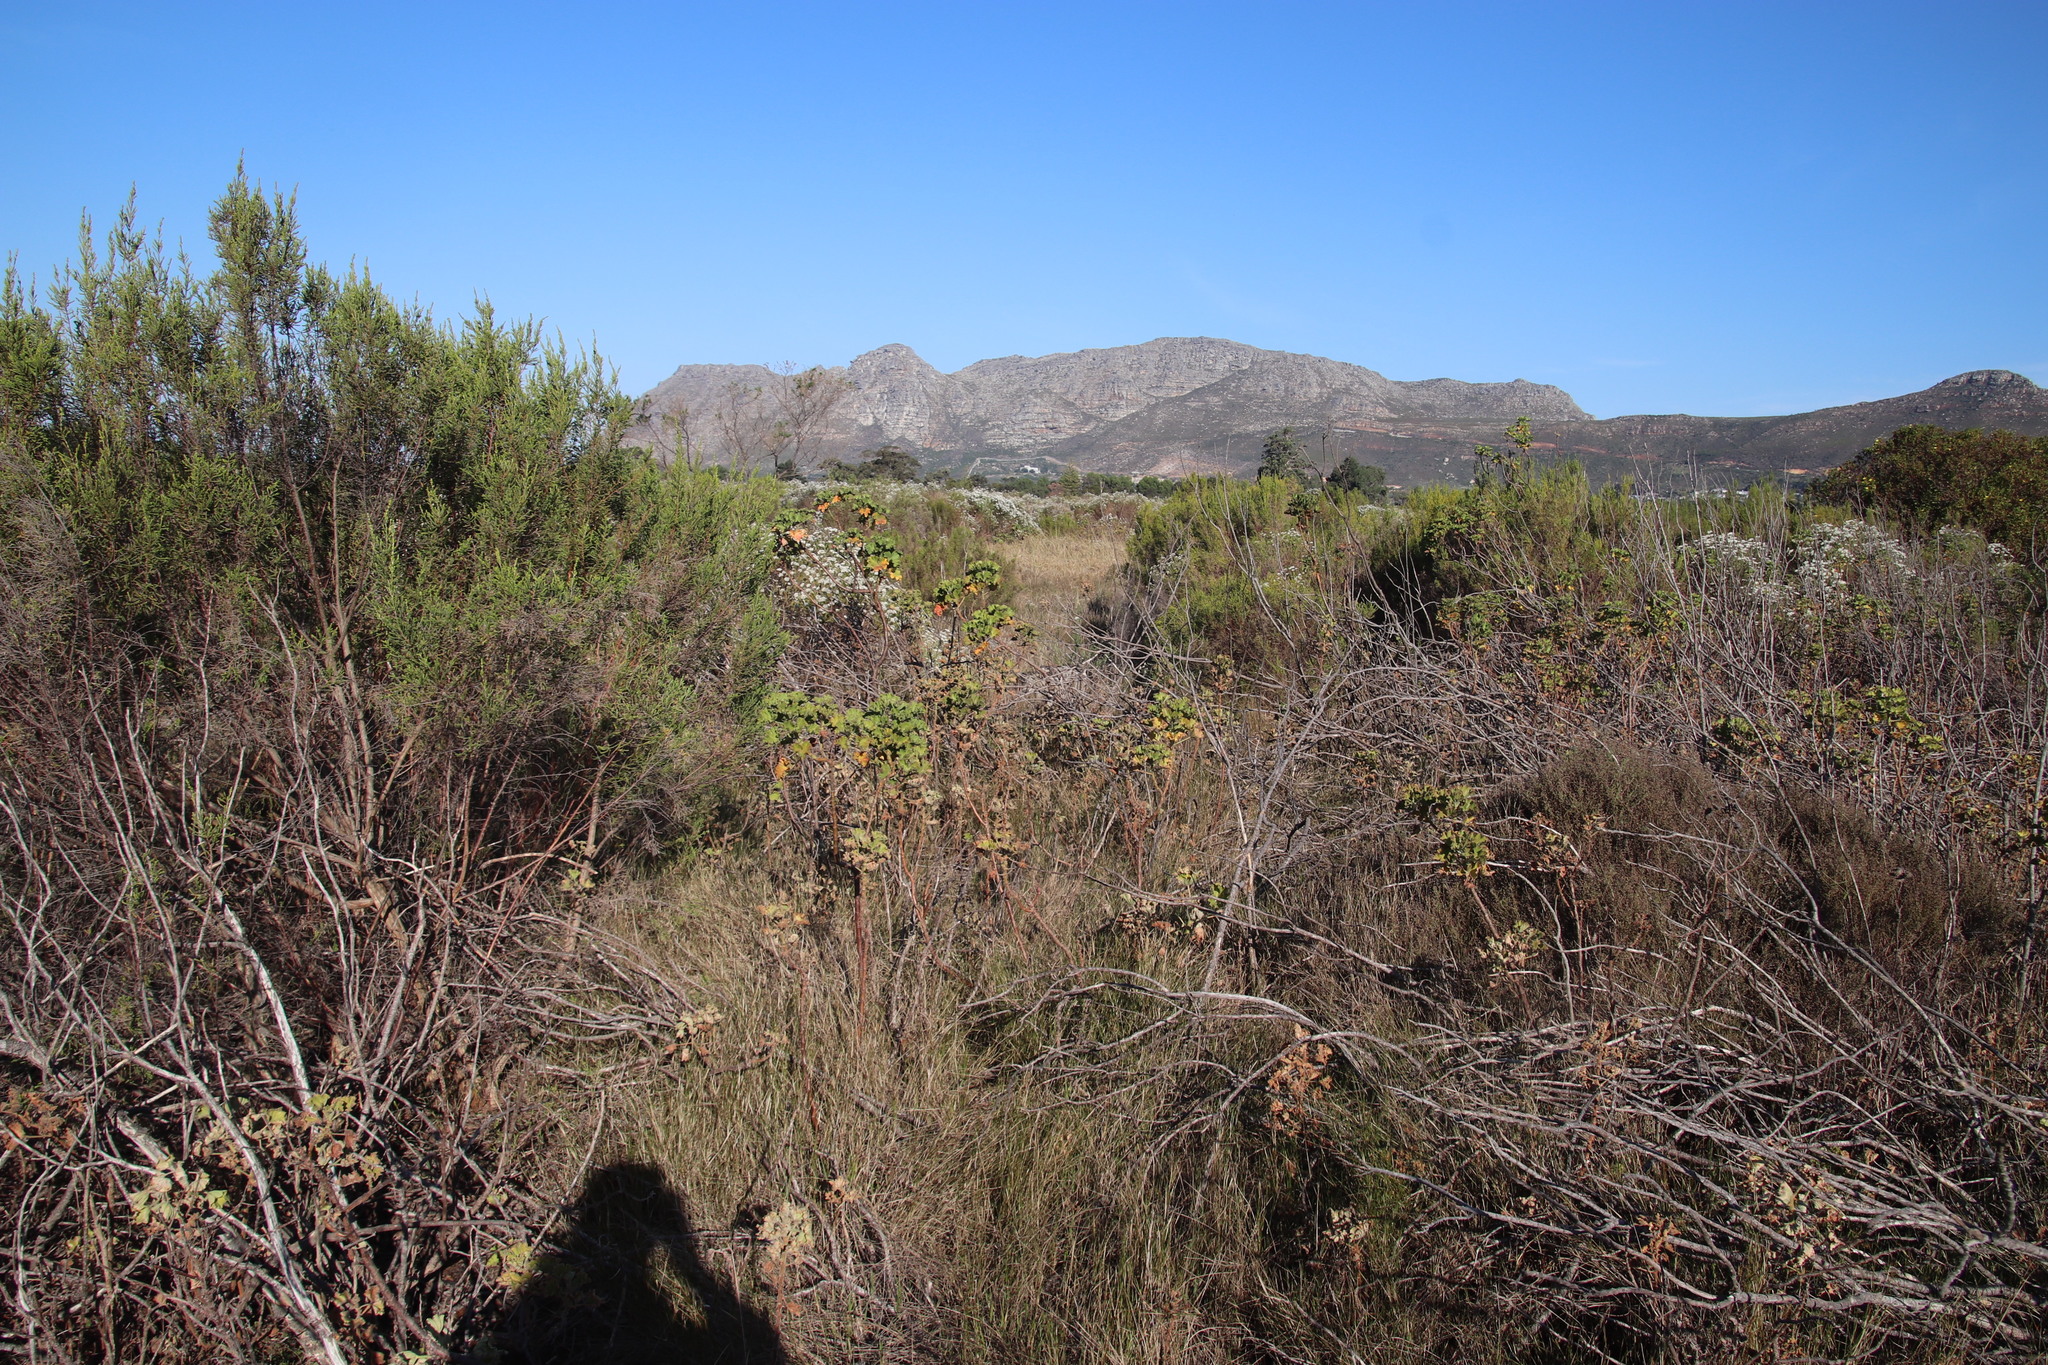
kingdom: Plantae
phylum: Tracheophyta
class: Liliopsida
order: Poales
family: Poaceae
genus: Cenchrus
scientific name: Cenchrus caudatus
